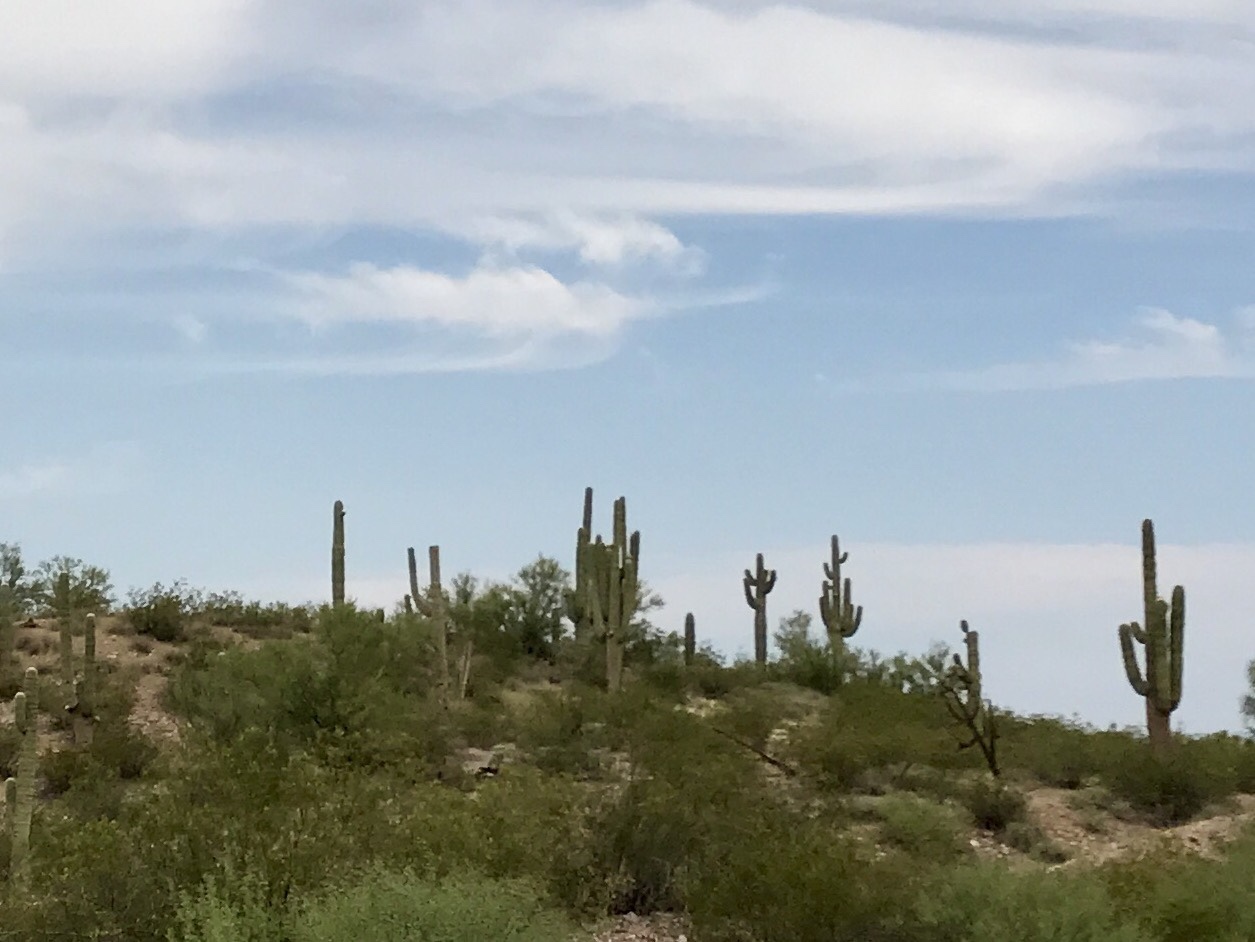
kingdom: Plantae
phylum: Tracheophyta
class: Magnoliopsida
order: Caryophyllales
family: Cactaceae
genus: Carnegiea
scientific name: Carnegiea gigantea
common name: Saguaro
